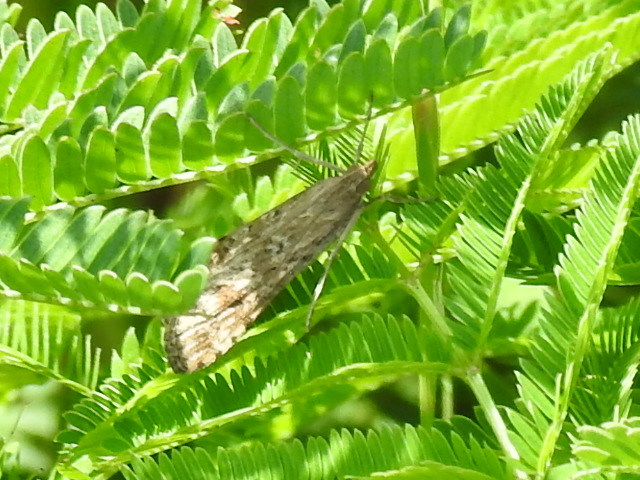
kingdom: Animalia
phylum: Arthropoda
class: Insecta
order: Lepidoptera
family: Crambidae
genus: Nomophila
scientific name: Nomophila nearctica
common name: American rush veneer
